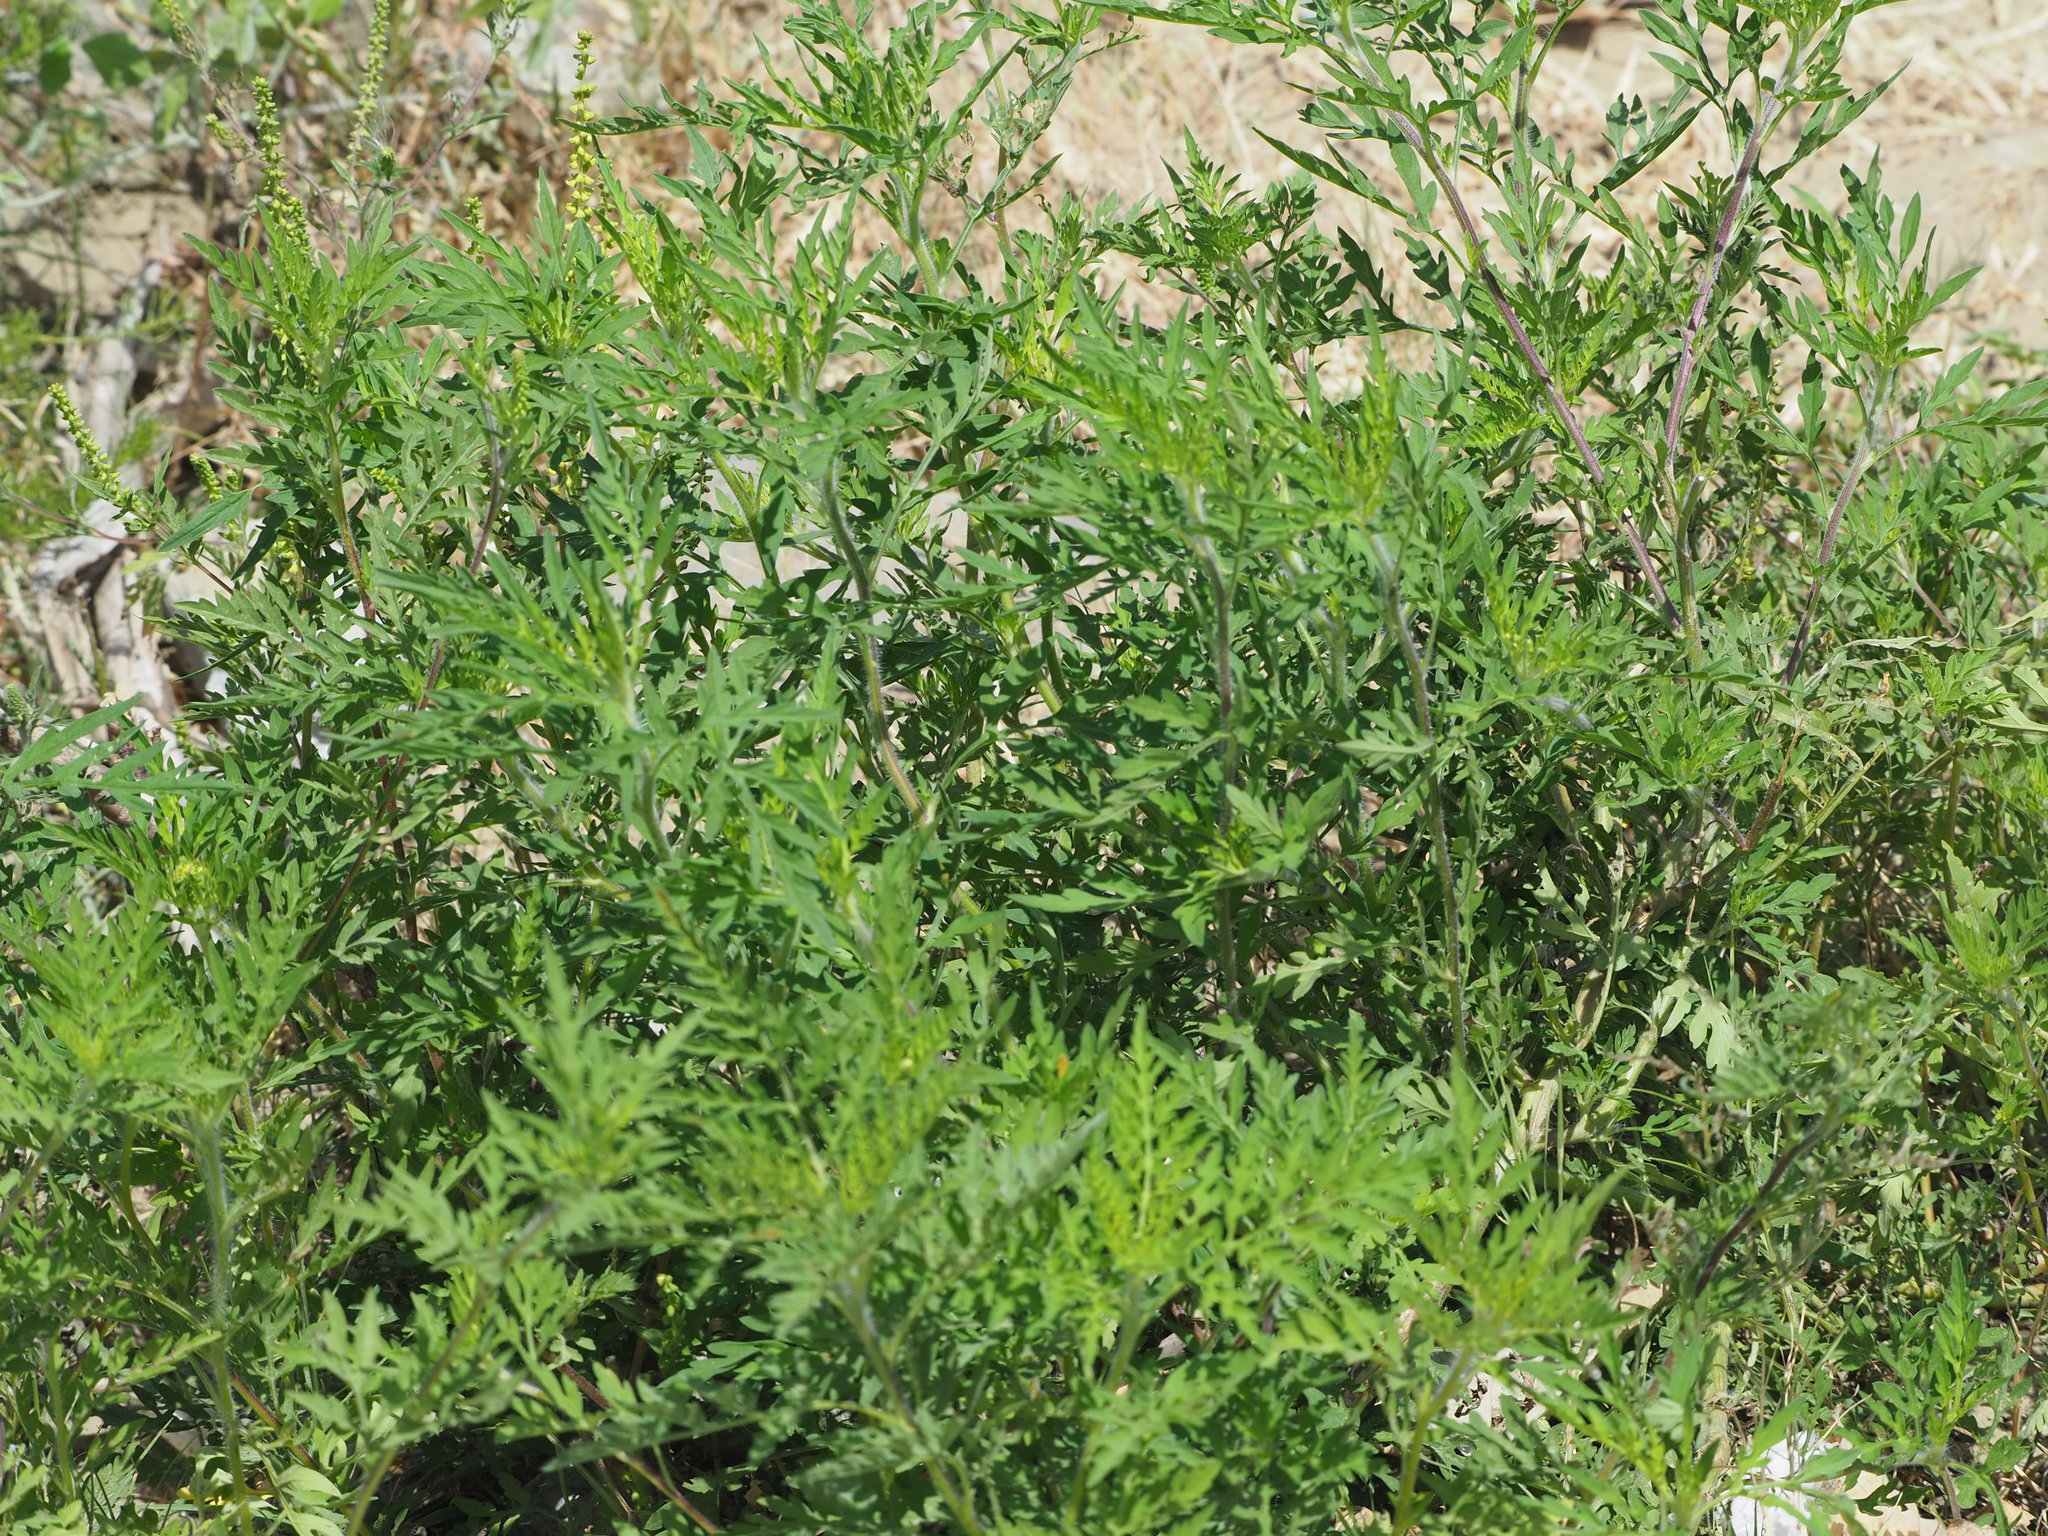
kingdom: Plantae
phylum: Tracheophyta
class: Magnoliopsida
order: Asterales
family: Asteraceae
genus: Ambrosia
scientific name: Ambrosia artemisiifolia
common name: Annual ragweed
